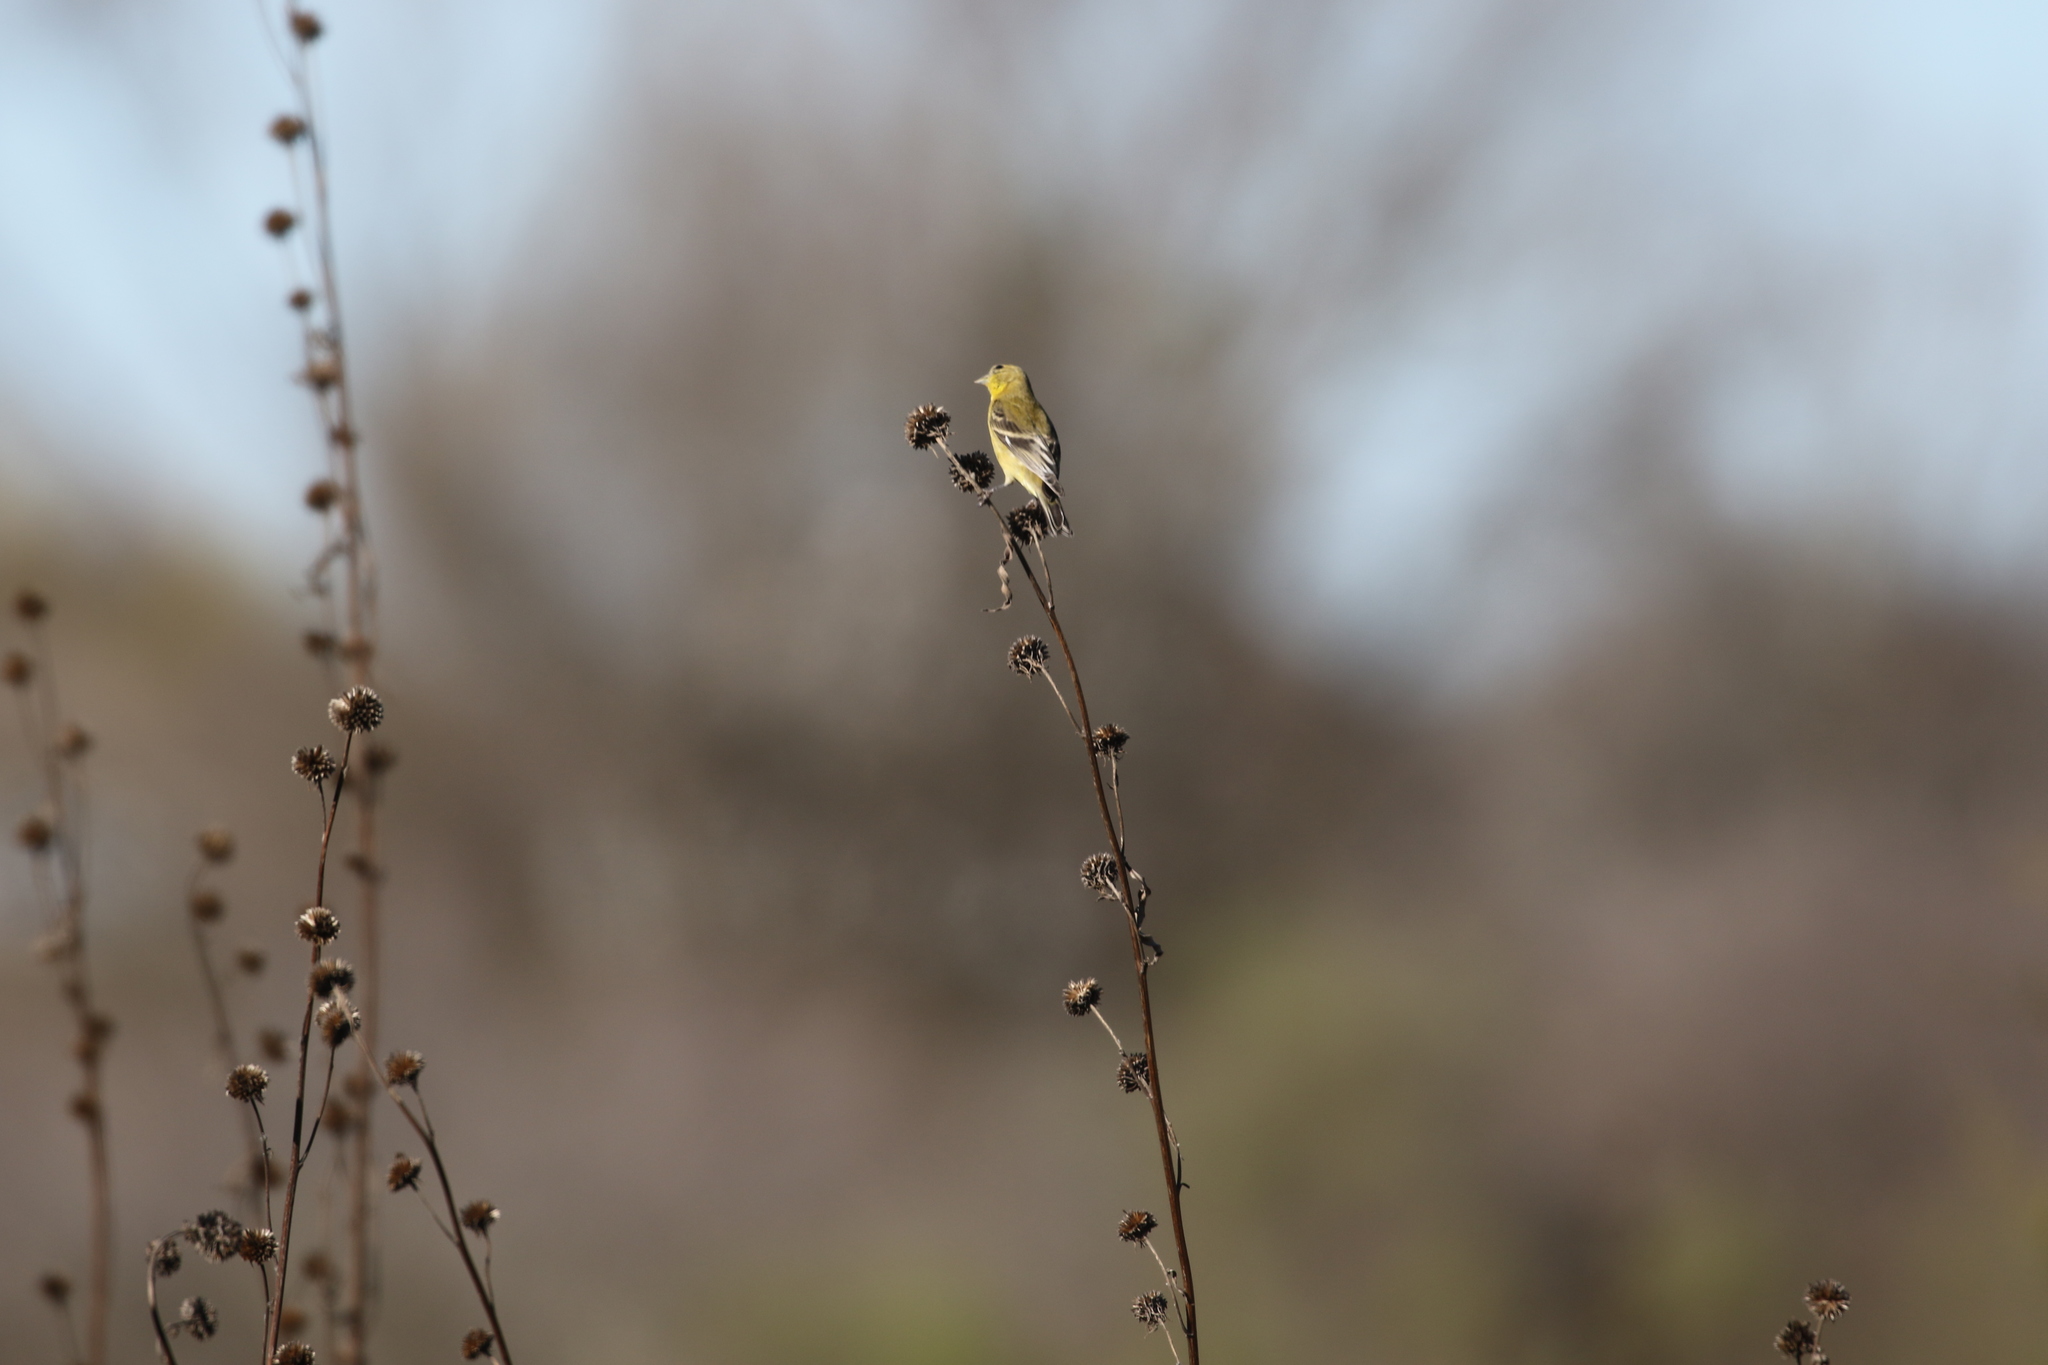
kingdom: Animalia
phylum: Chordata
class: Aves
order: Passeriformes
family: Fringillidae
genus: Spinus
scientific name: Spinus tristis
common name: American goldfinch
